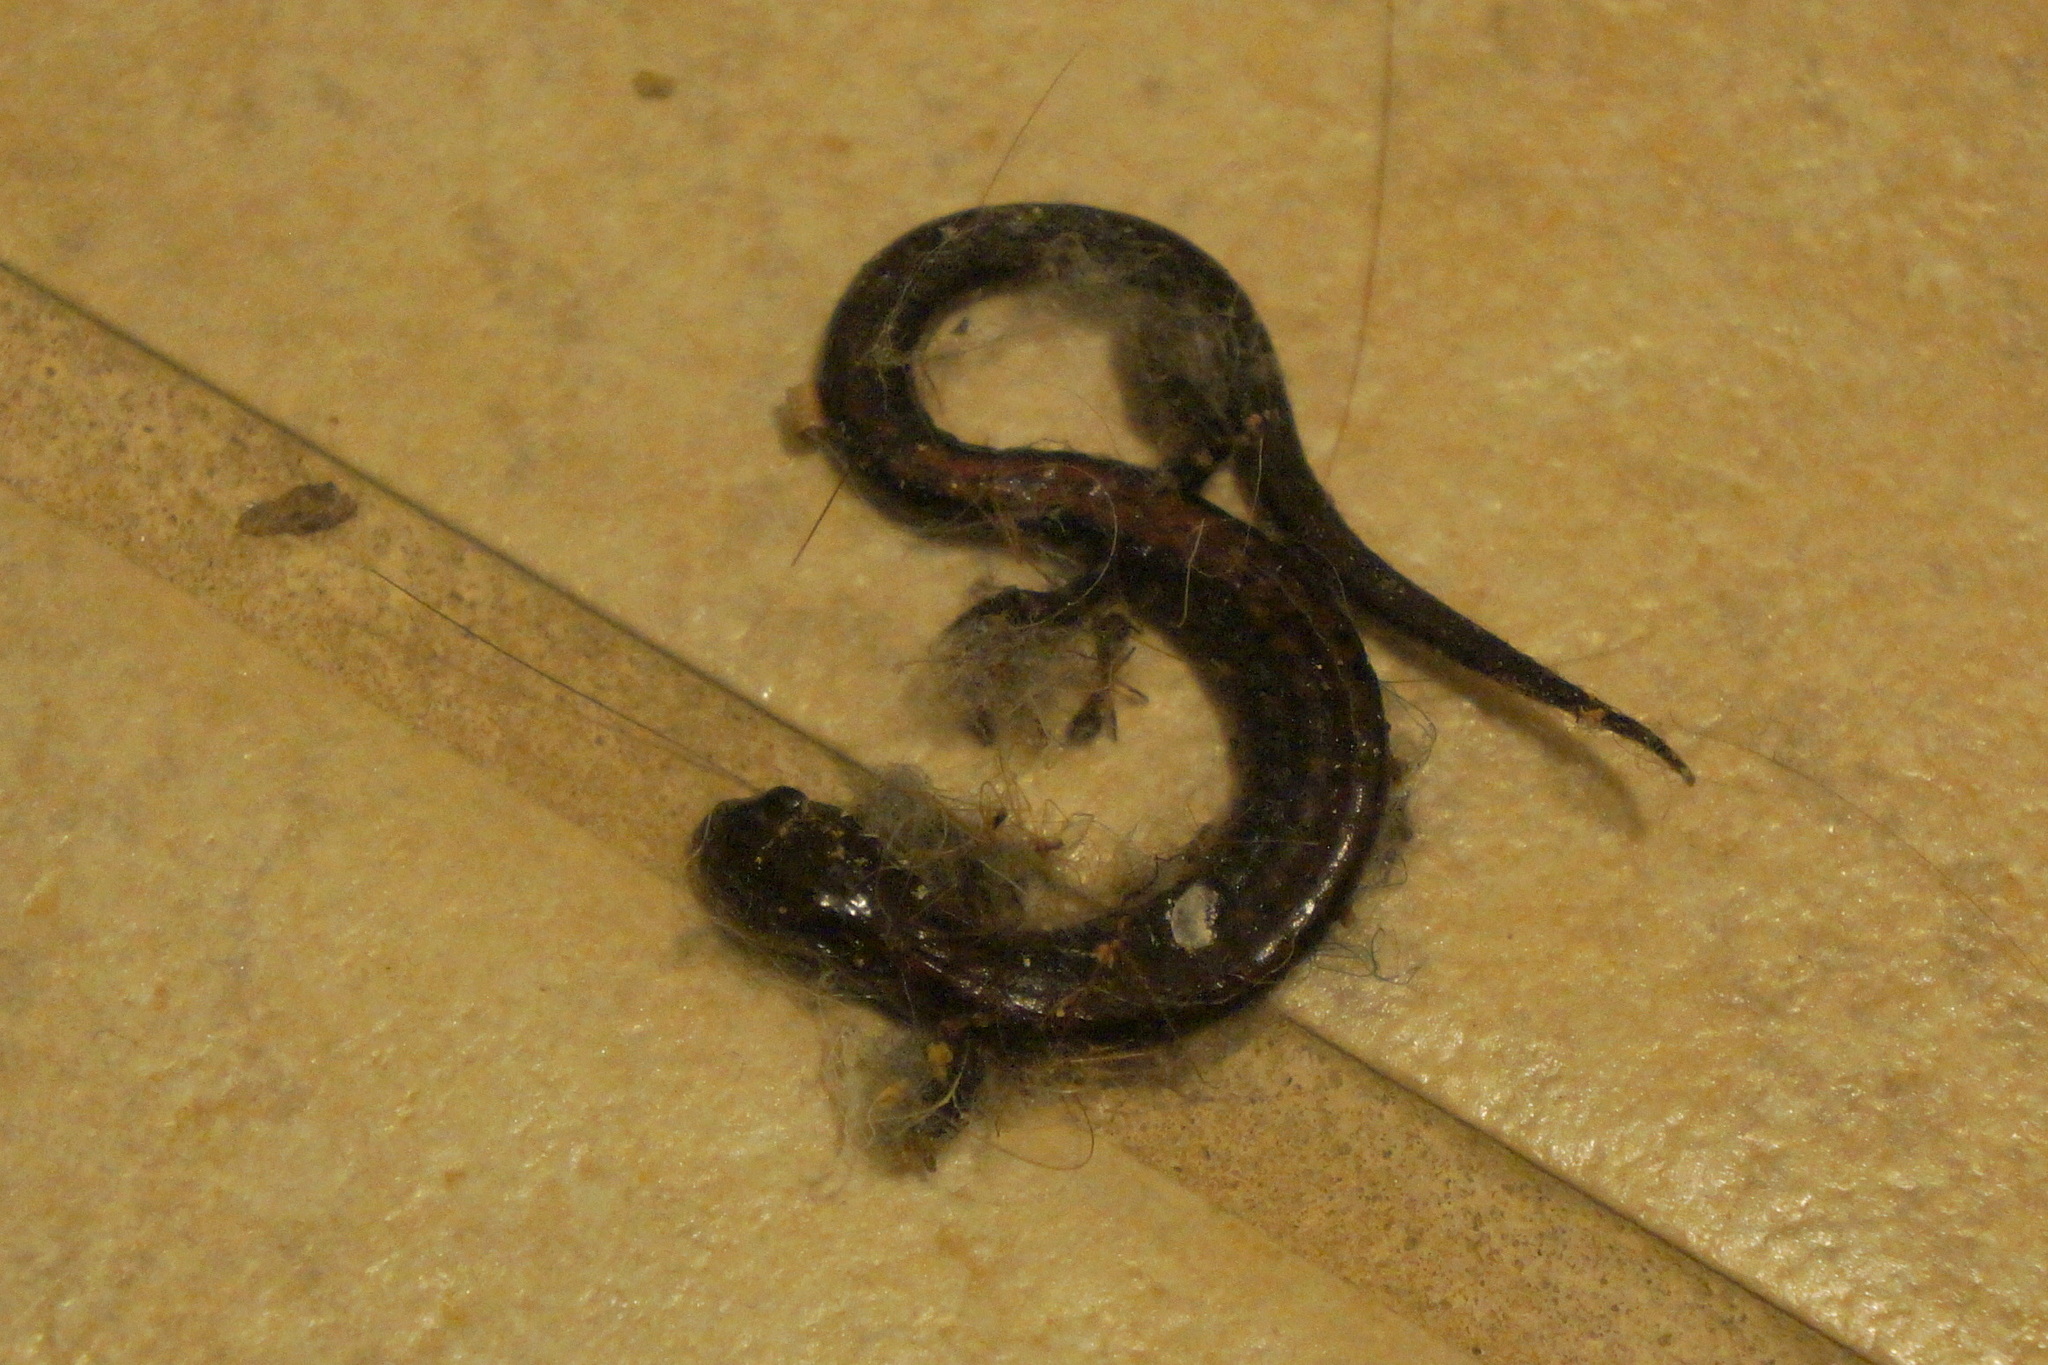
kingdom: Animalia
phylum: Chordata
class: Amphibia
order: Caudata
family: Plethodontidae
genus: Plethodon
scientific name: Plethodon cinereus
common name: Redback salamander
